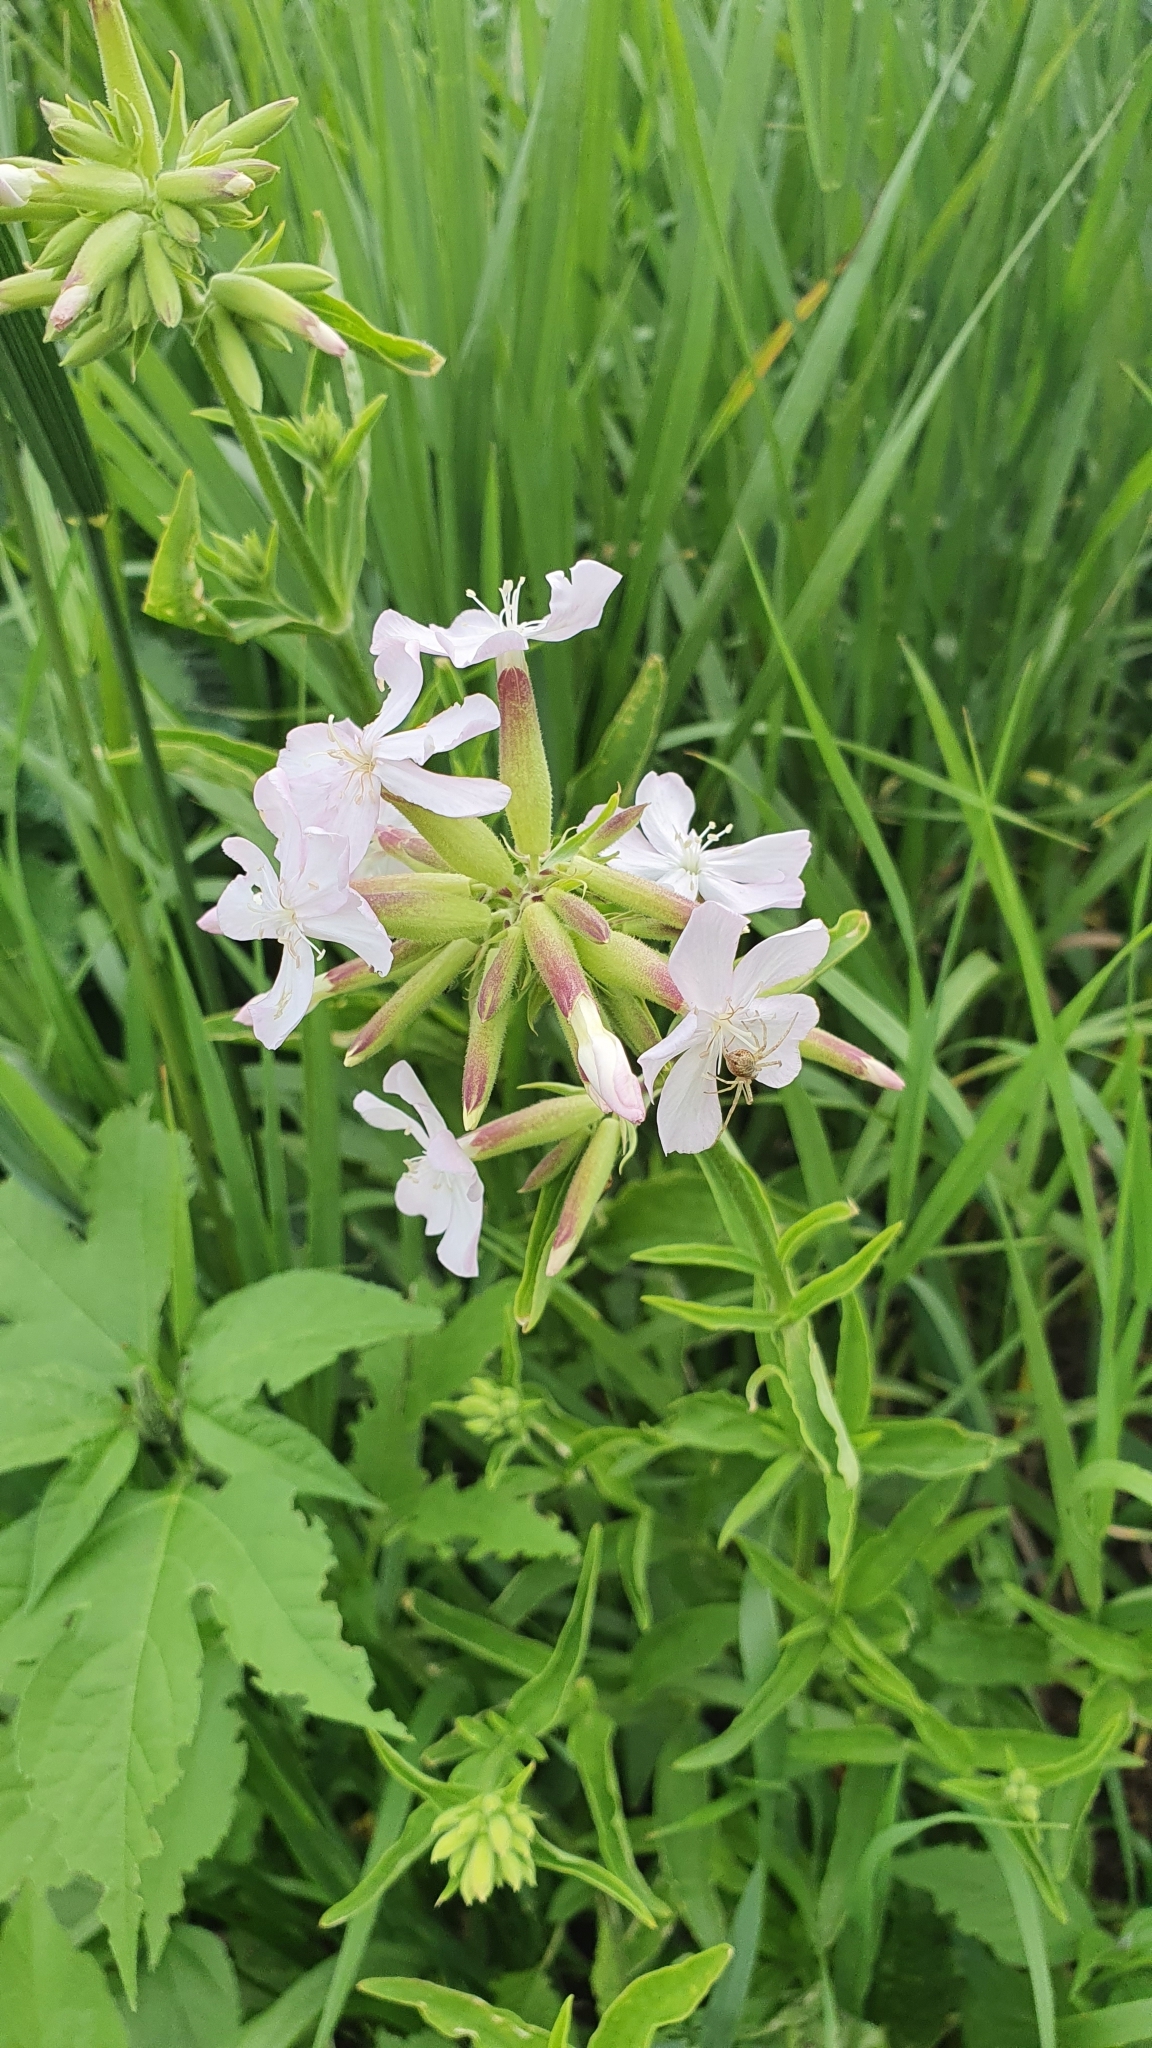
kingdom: Plantae
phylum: Tracheophyta
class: Magnoliopsida
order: Caryophyllales
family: Caryophyllaceae
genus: Saponaria
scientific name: Saponaria officinalis
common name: Soapwort
